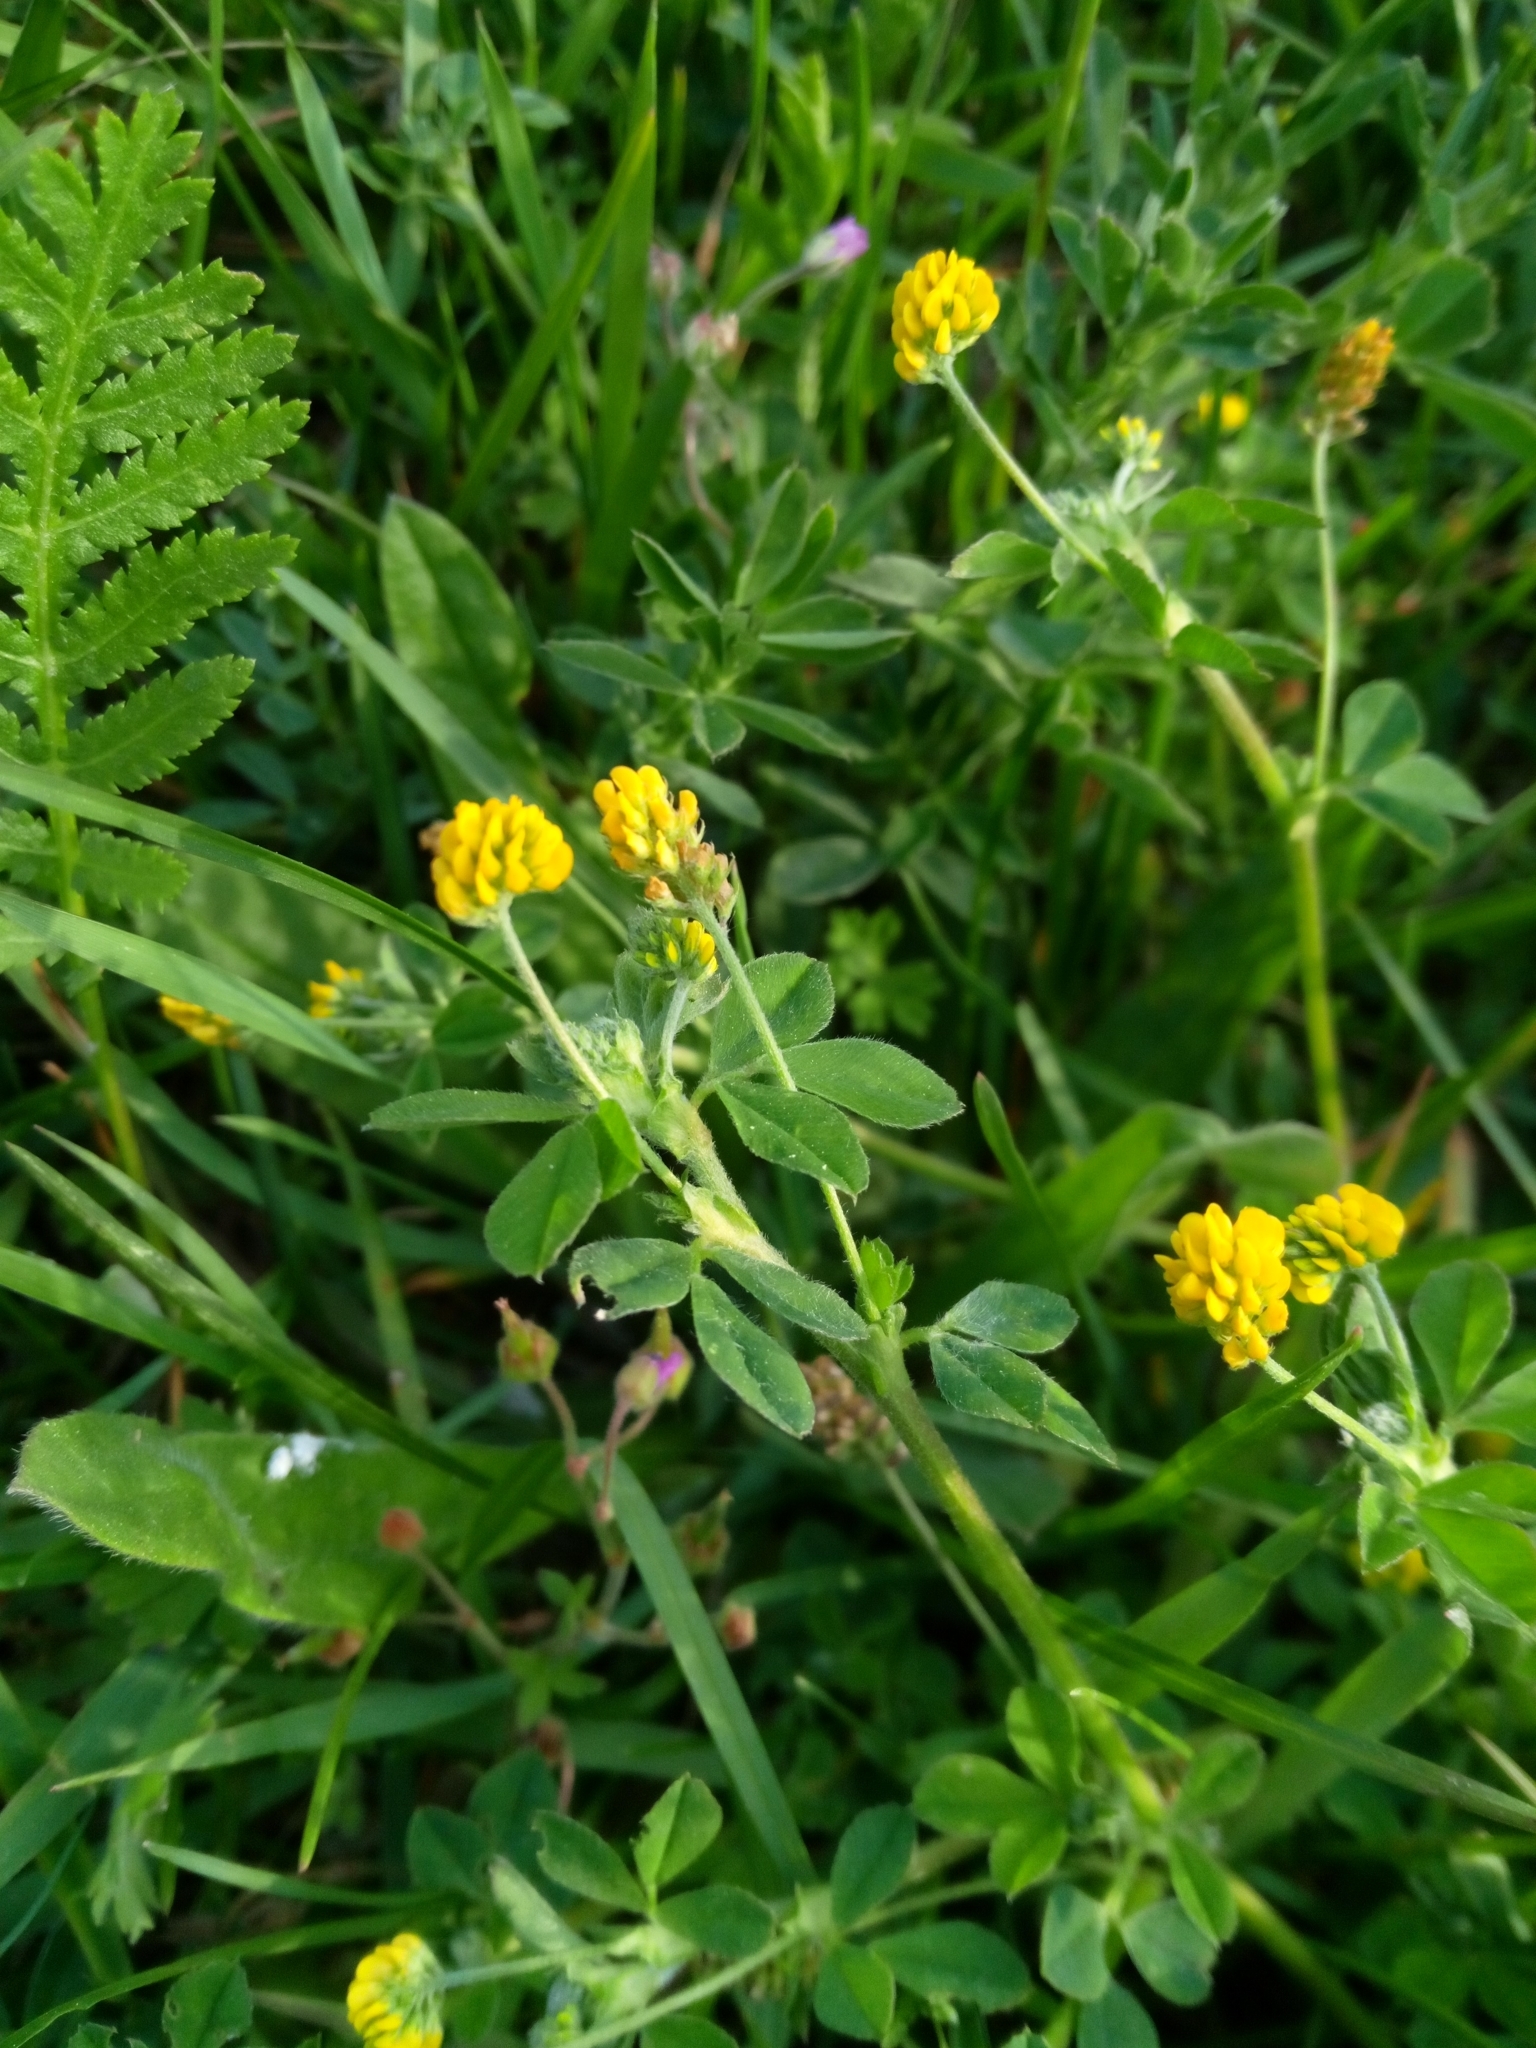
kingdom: Plantae
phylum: Tracheophyta
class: Magnoliopsida
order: Fabales
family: Fabaceae
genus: Medicago
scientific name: Medicago lupulina
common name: Black medick
